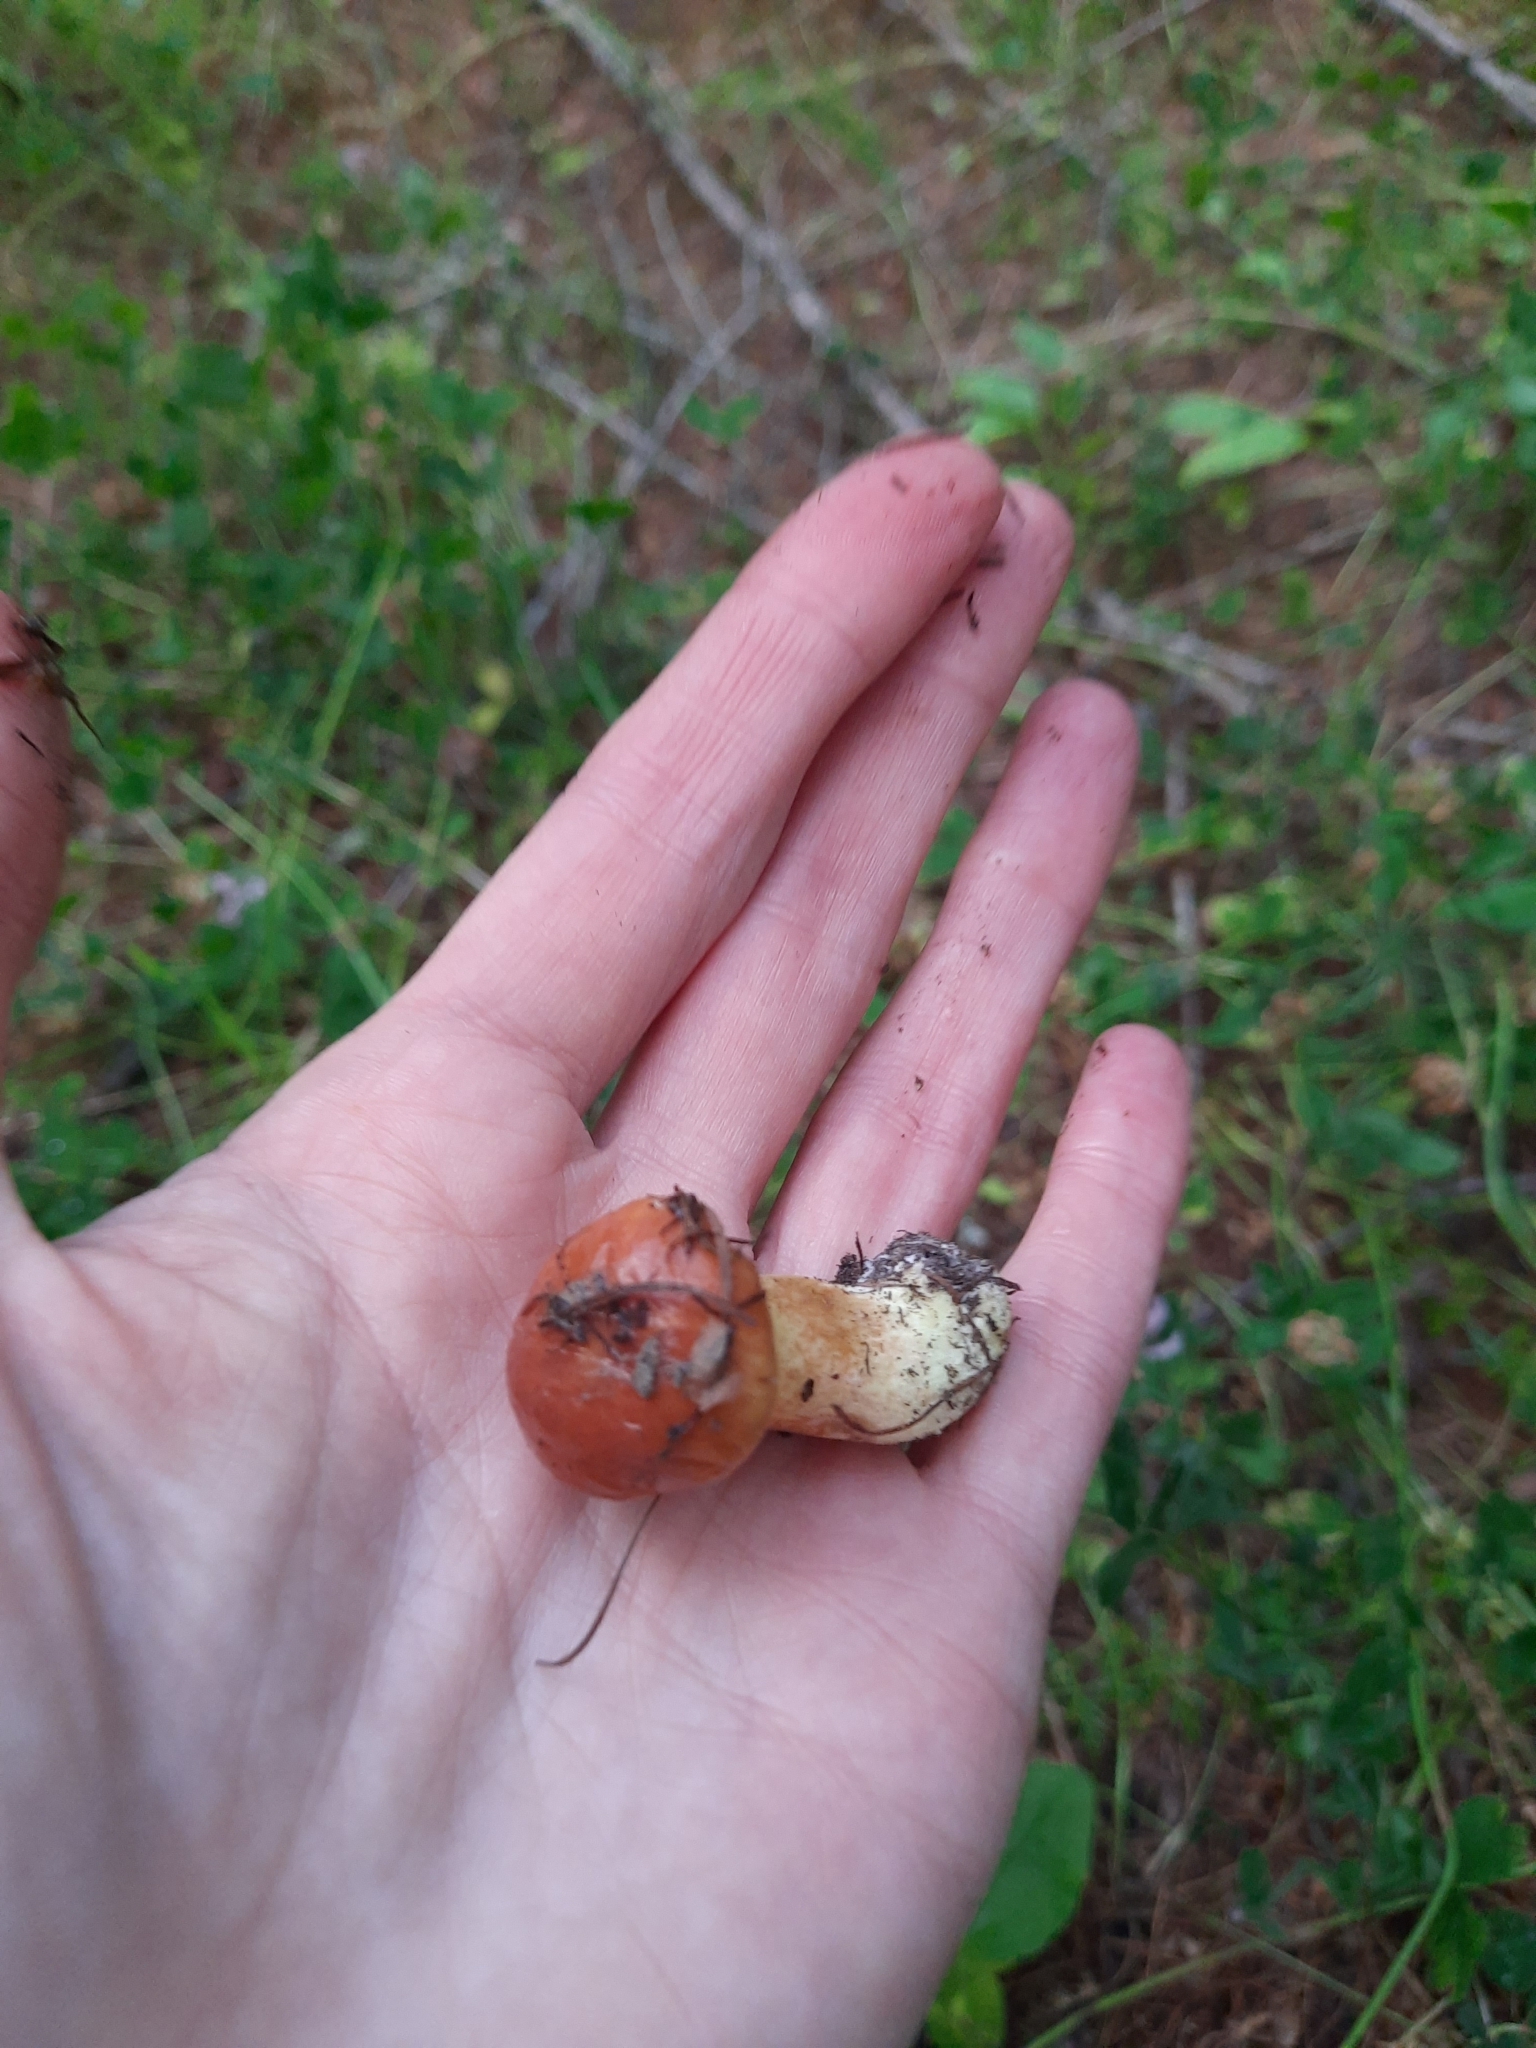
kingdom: Fungi
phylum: Basidiomycota
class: Agaricomycetes
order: Boletales
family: Suillaceae
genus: Suillus
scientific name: Suillus grevillei
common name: Larch bolete
